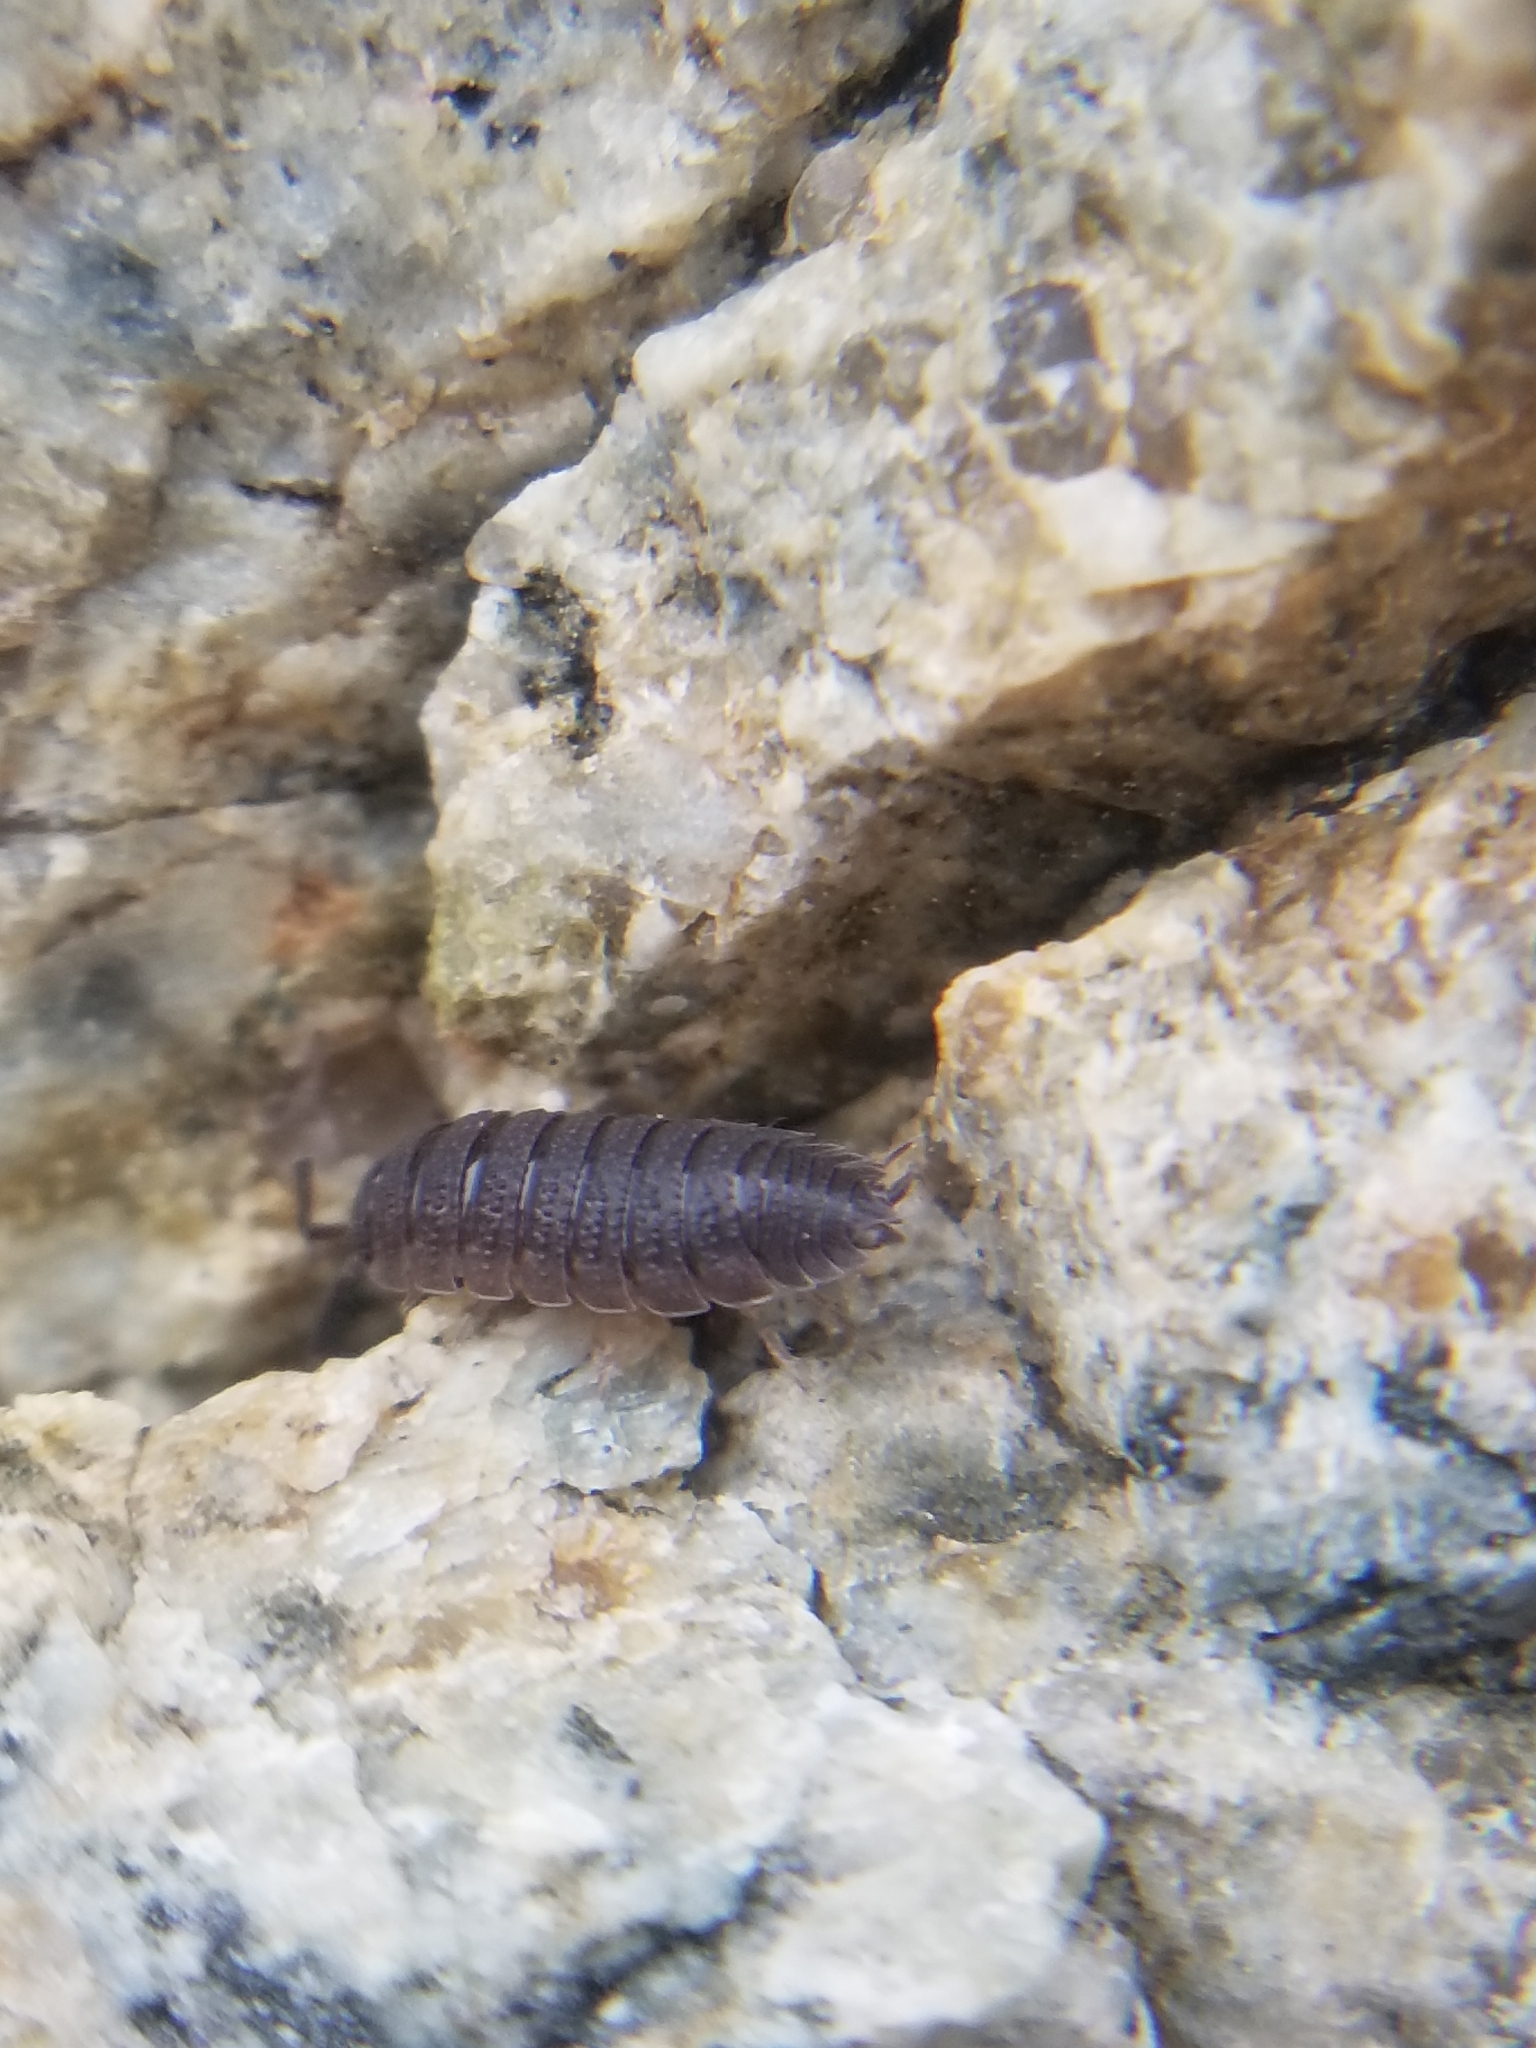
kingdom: Animalia
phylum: Arthropoda
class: Malacostraca
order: Isopoda
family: Porcellionidae
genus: Porcellio
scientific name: Porcellio scaber
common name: Common rough woodlouse
